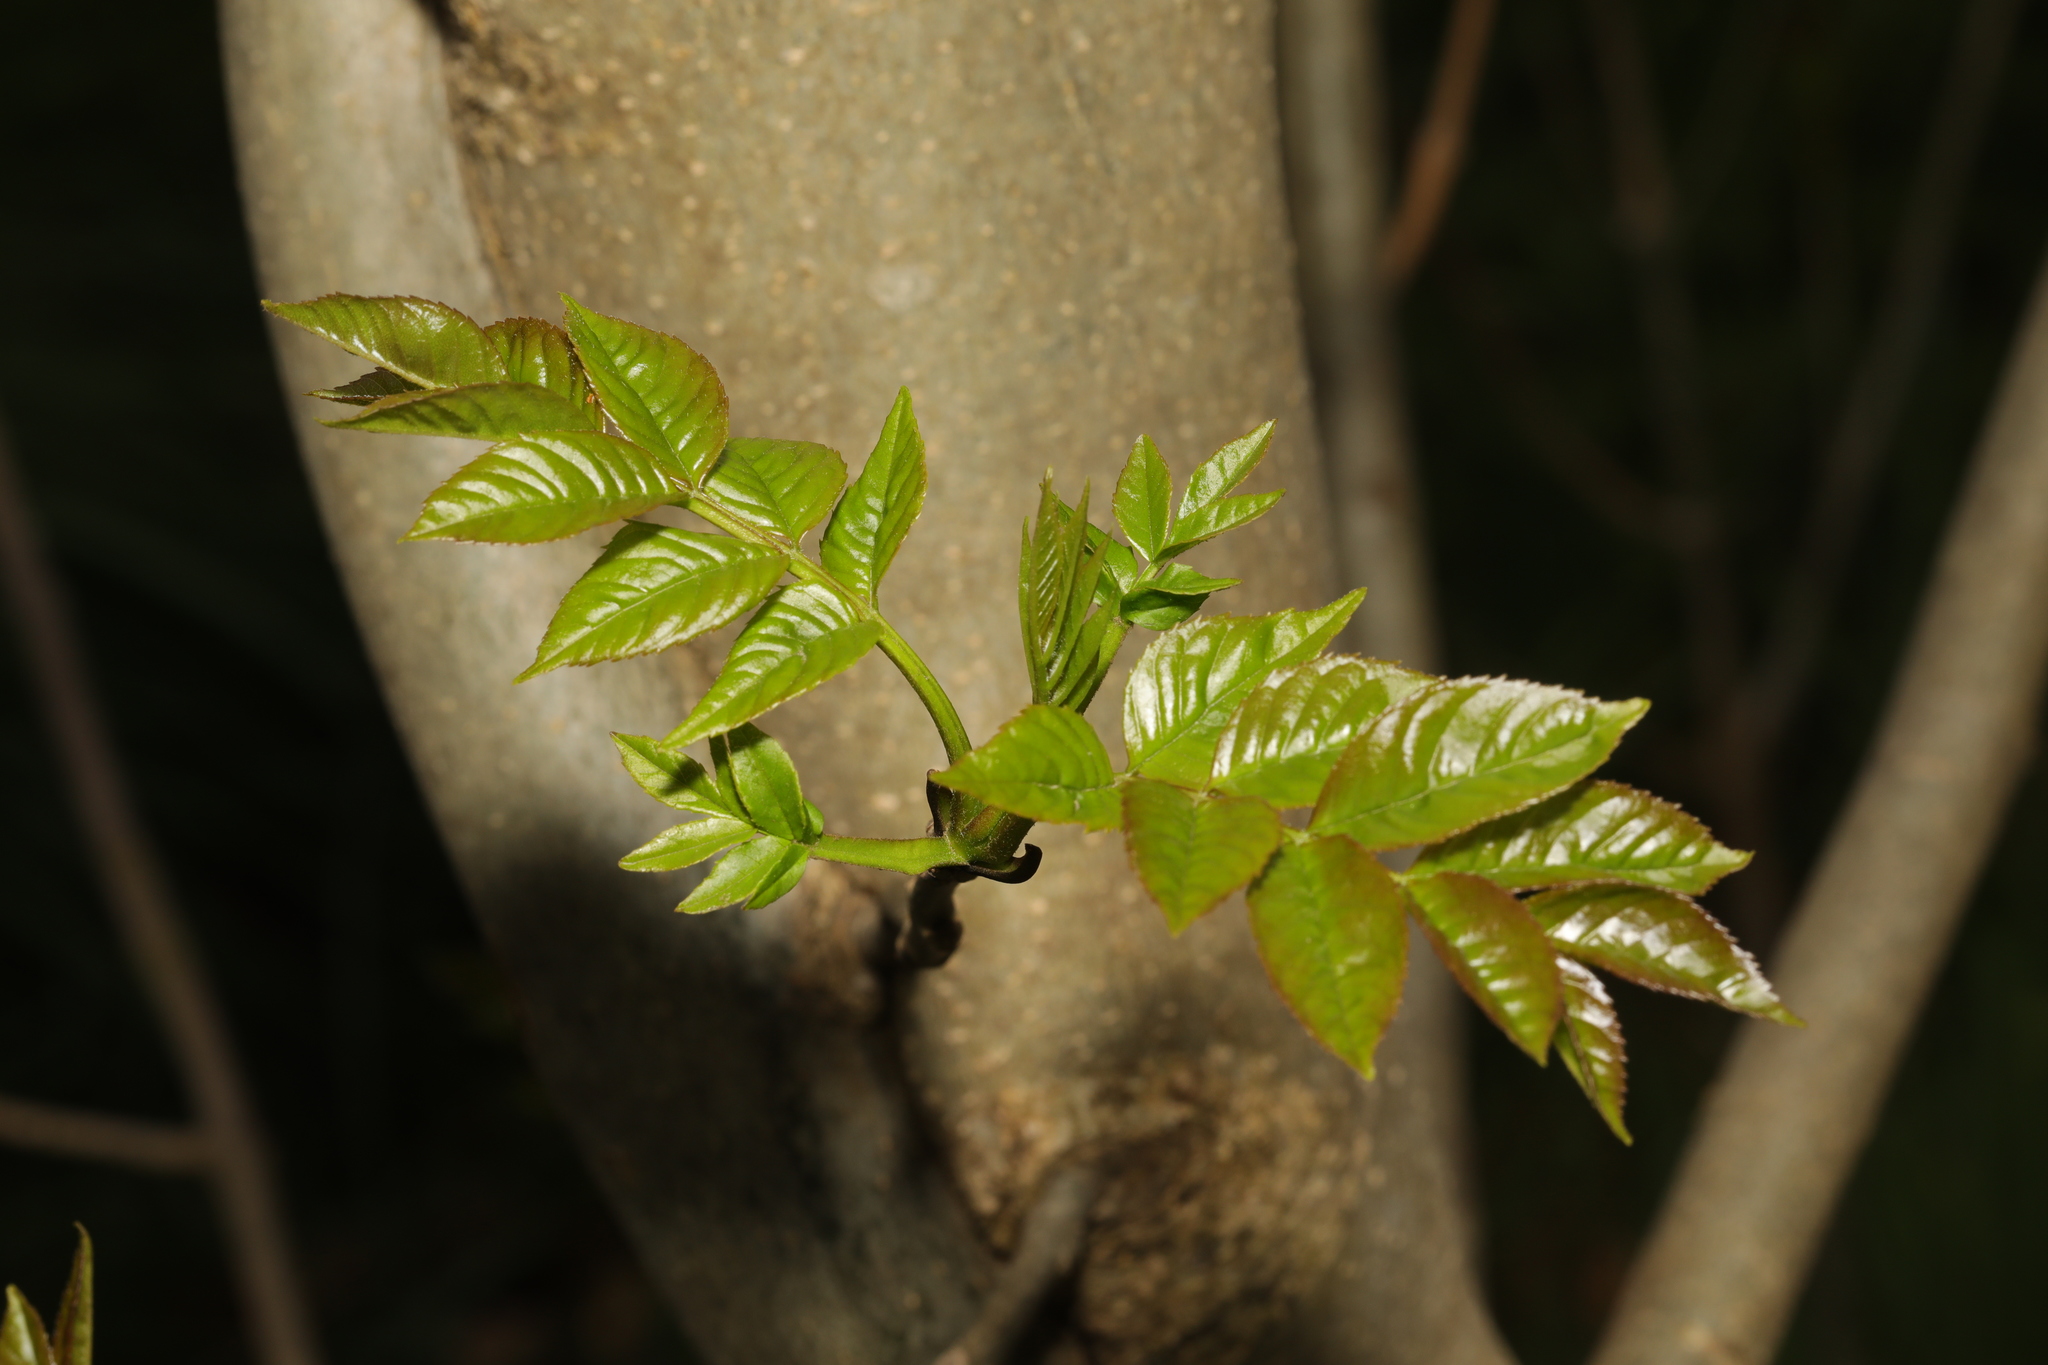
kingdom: Plantae
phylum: Tracheophyta
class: Magnoliopsida
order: Lamiales
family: Oleaceae
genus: Fraxinus
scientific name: Fraxinus excelsior
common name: European ash
